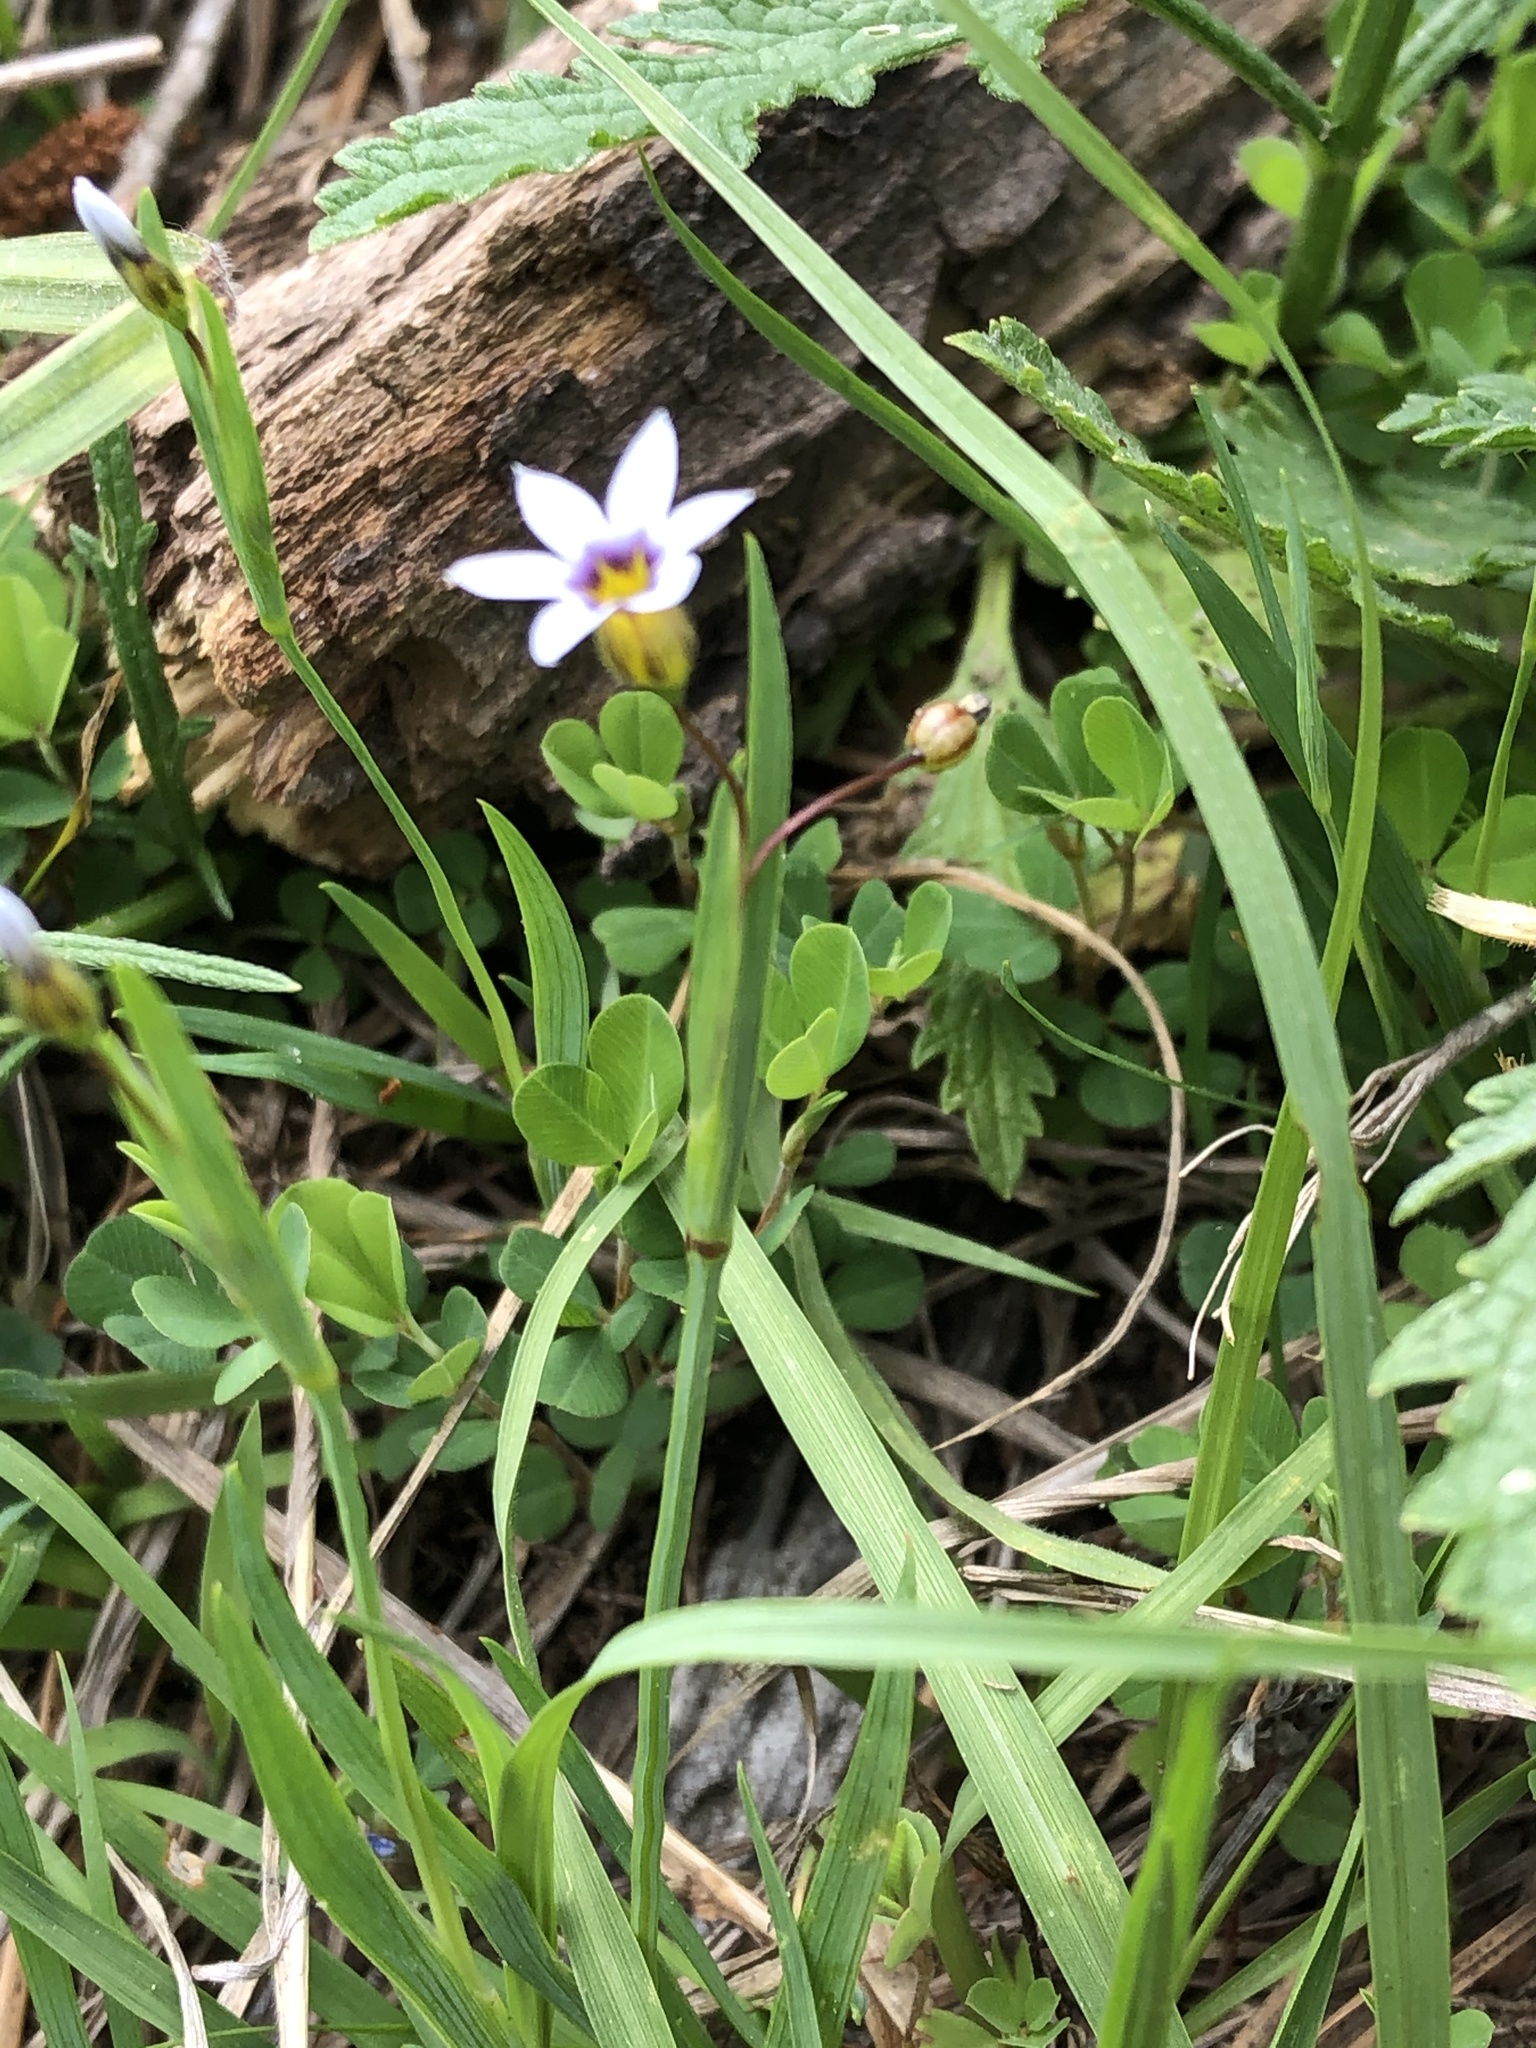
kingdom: Plantae
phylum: Tracheophyta
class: Liliopsida
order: Asparagales
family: Iridaceae
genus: Sisyrinchium
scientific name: Sisyrinchium micranthum
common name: Bermuda pigroot
